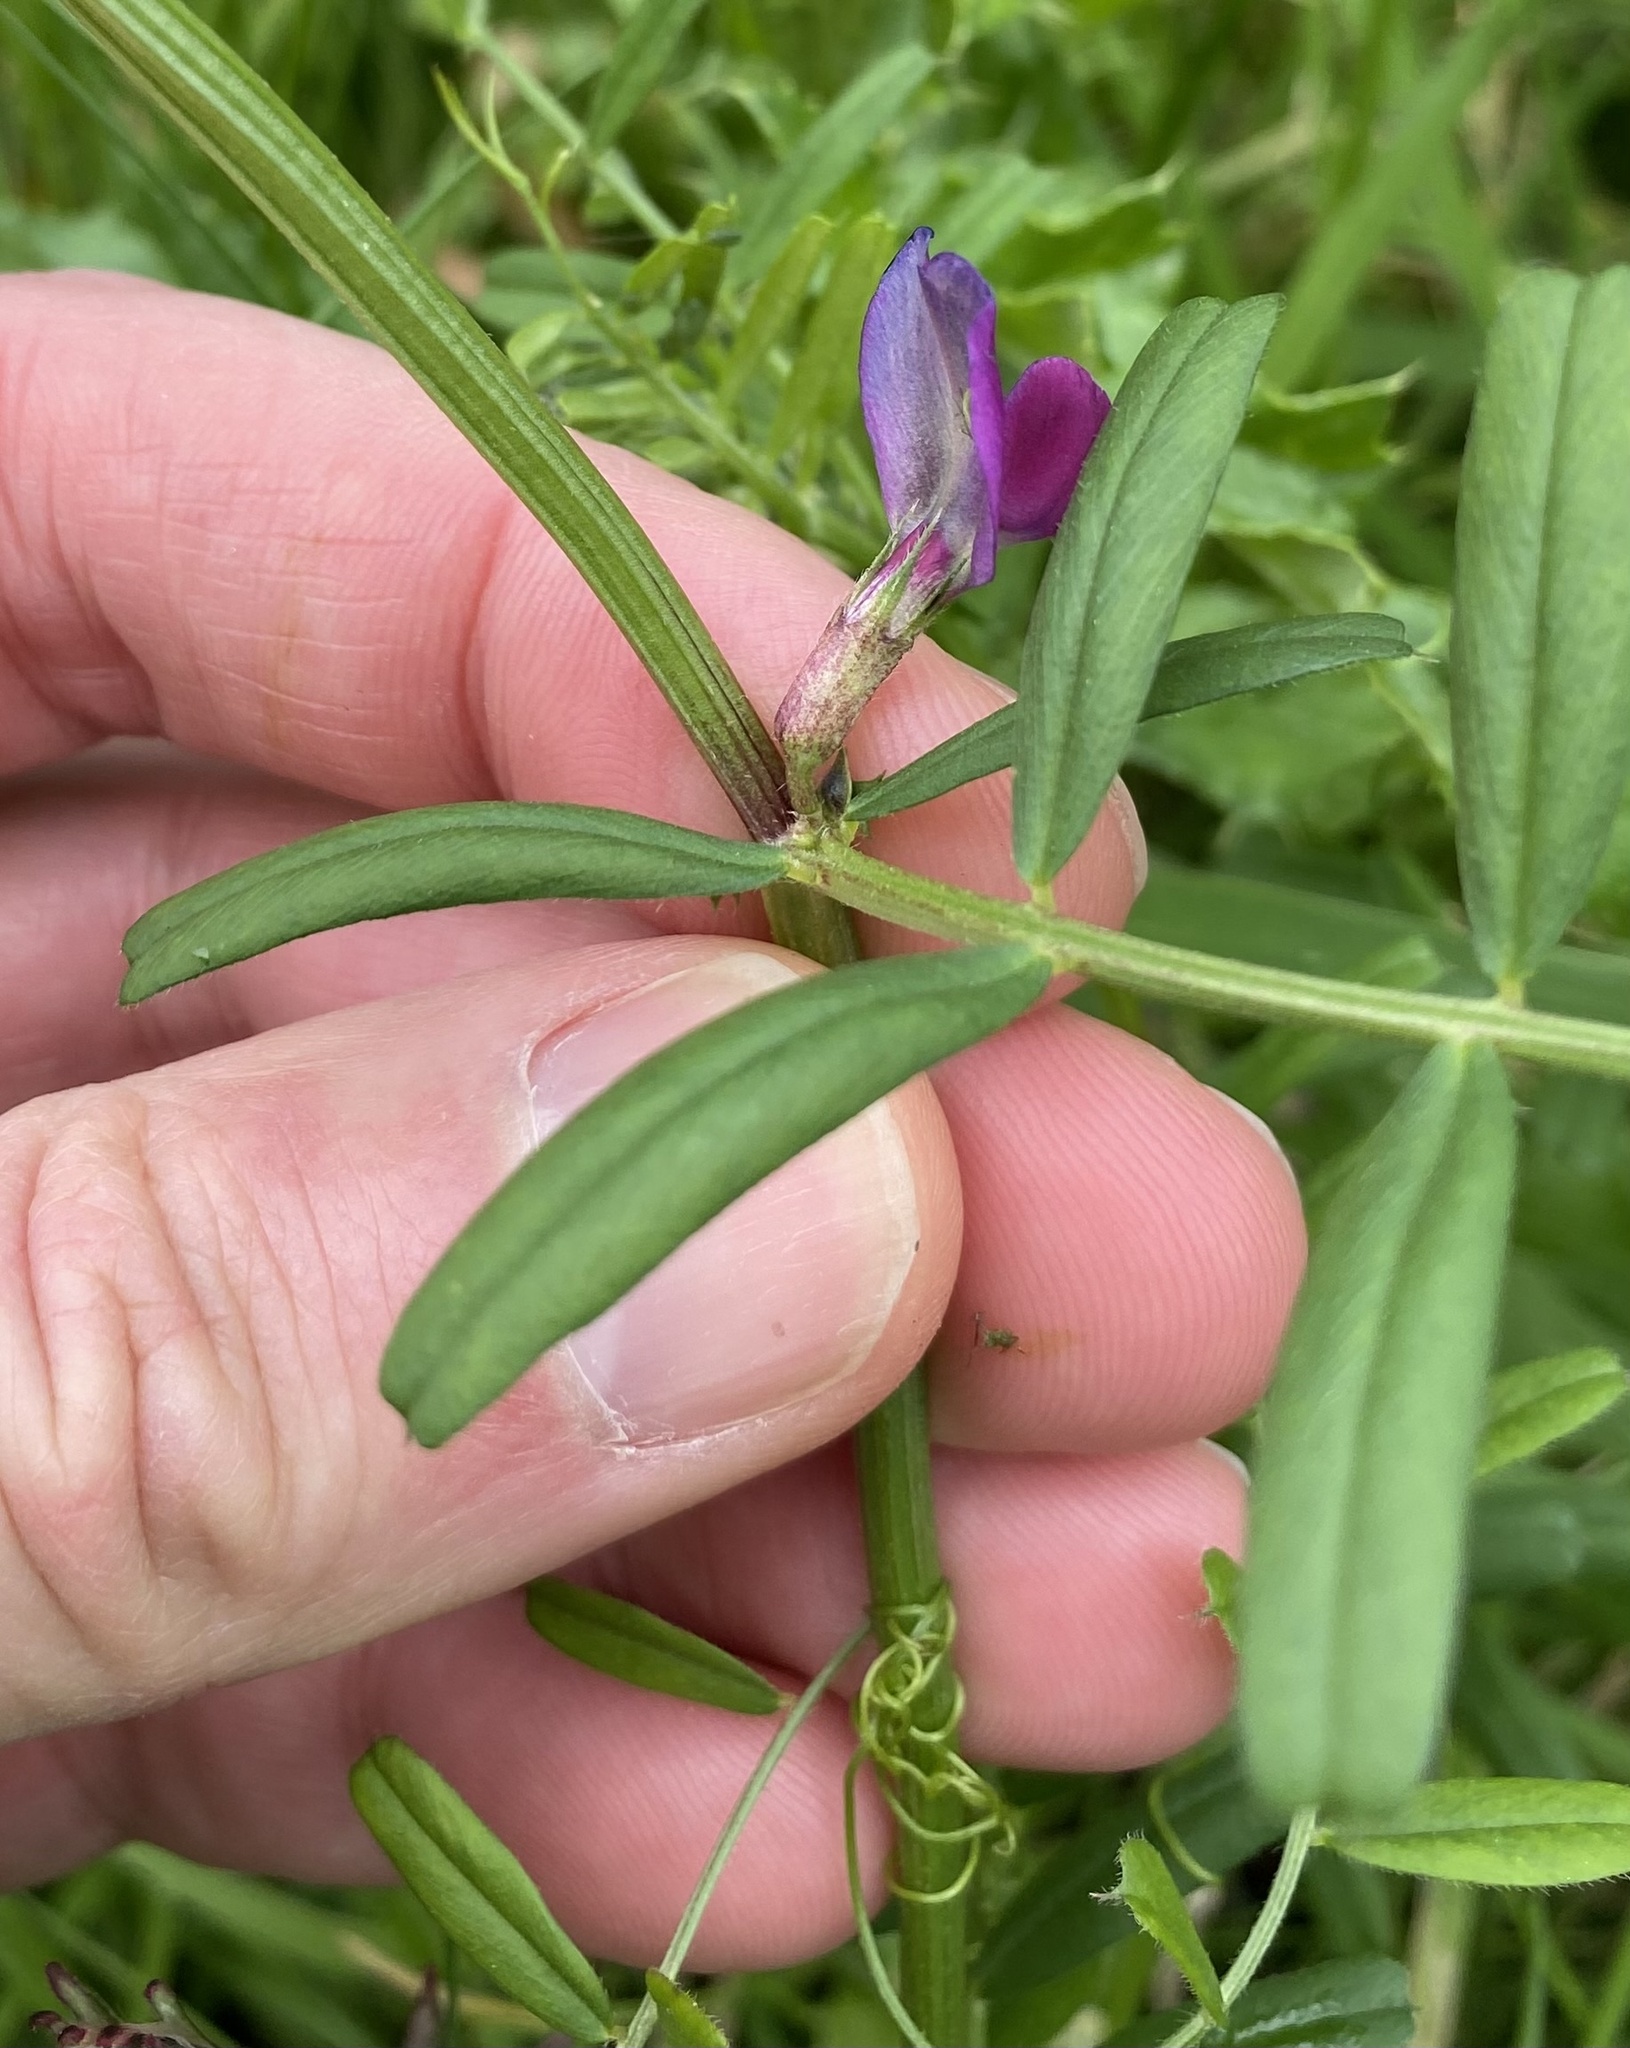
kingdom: Plantae
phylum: Tracheophyta
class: Magnoliopsida
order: Fabales
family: Fabaceae
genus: Vicia
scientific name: Vicia sativa
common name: Garden vetch
